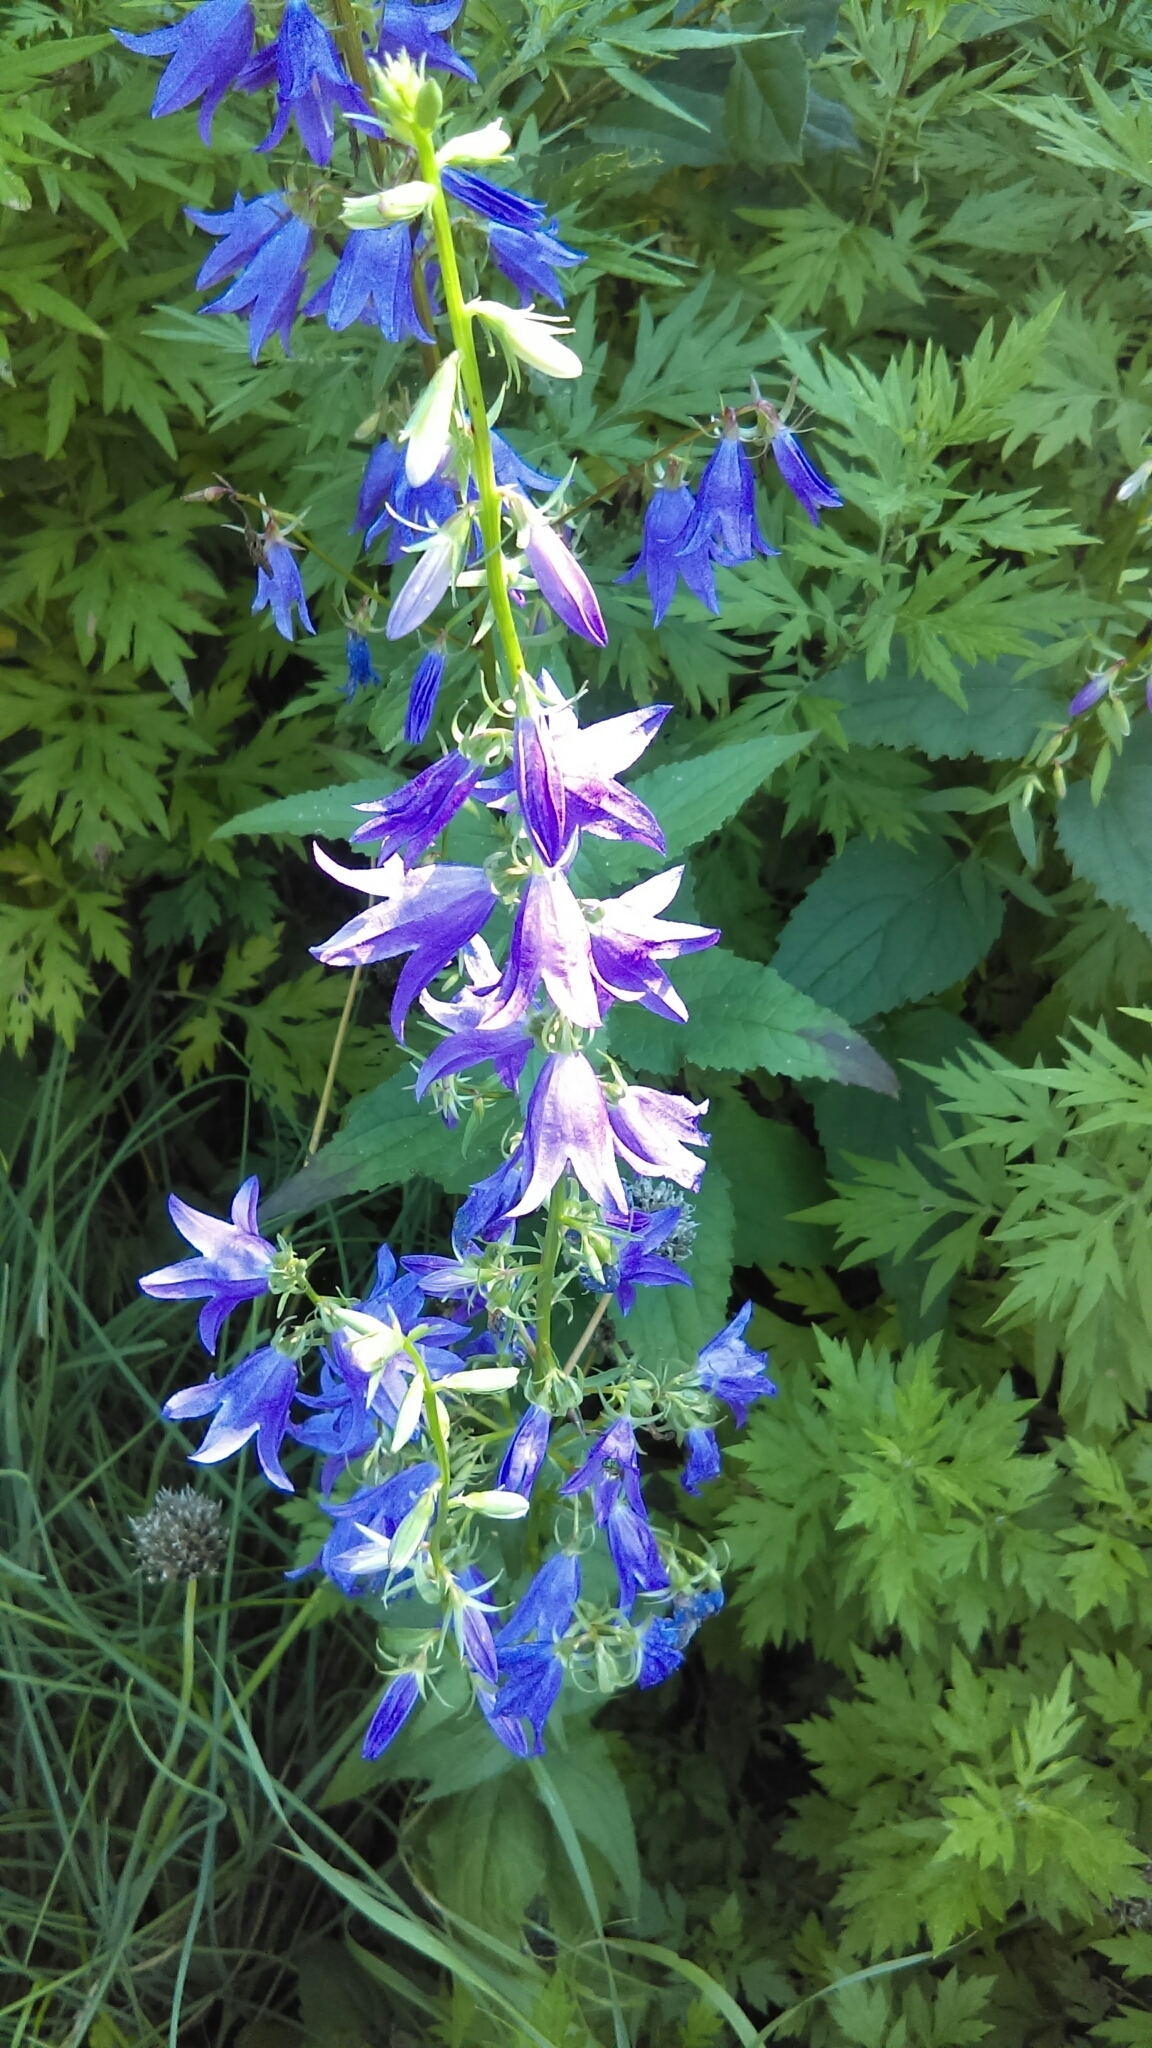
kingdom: Plantae
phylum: Tracheophyta
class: Magnoliopsida
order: Asterales
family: Campanulaceae
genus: Campanula
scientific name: Campanula rapunculoides
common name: Creeping bellflower
